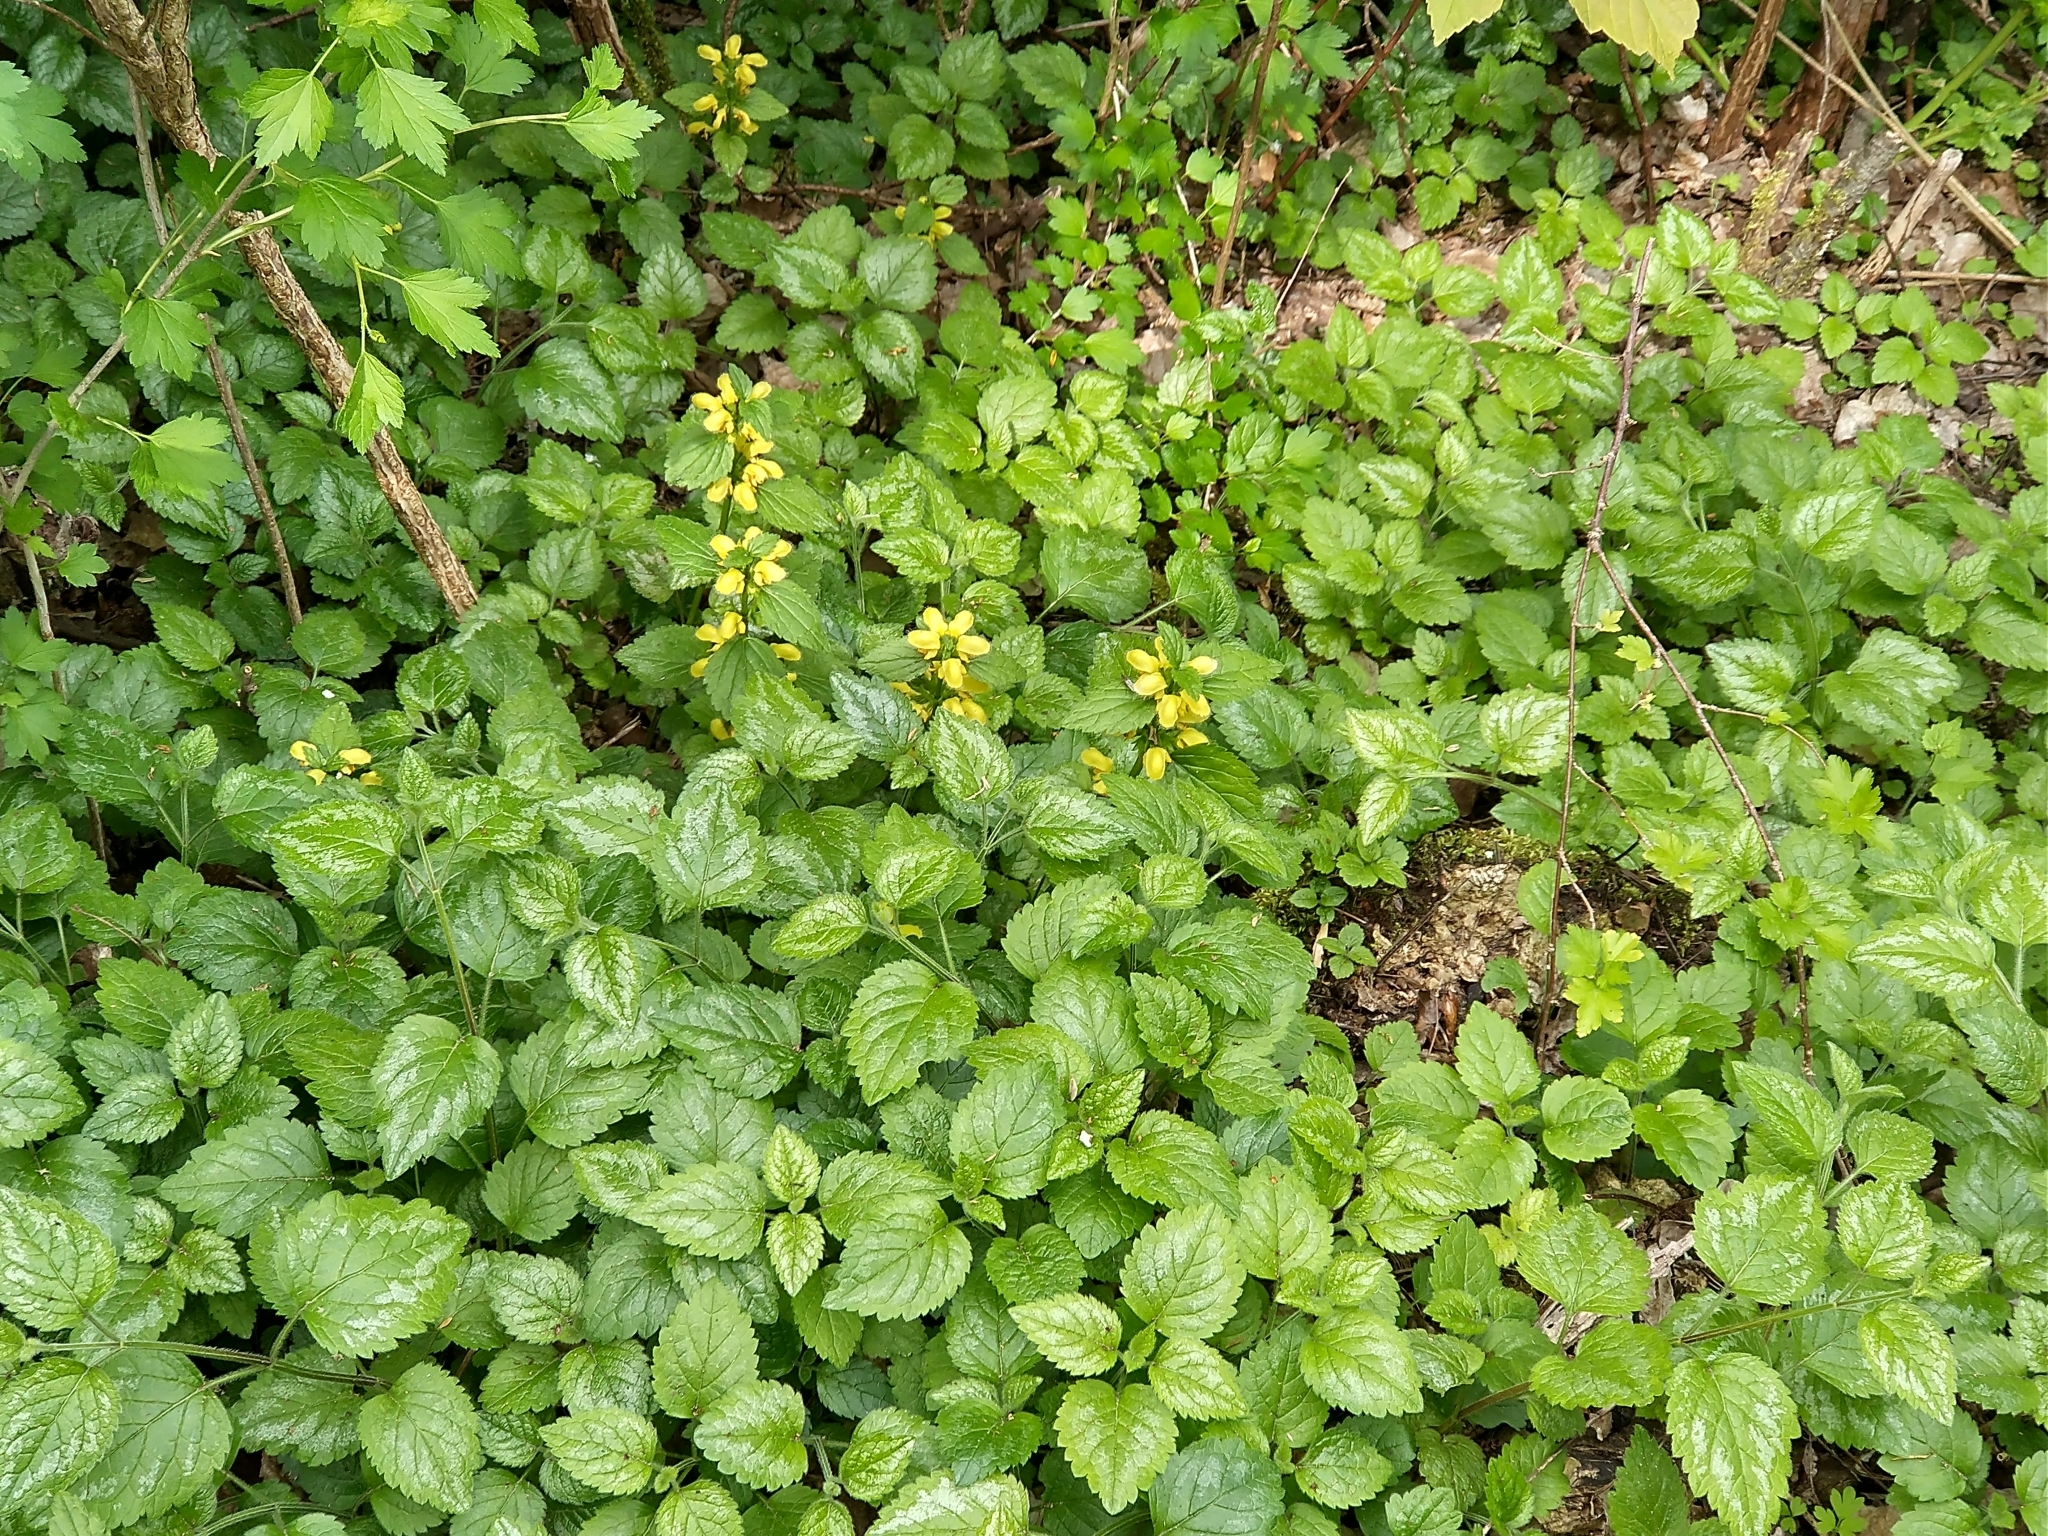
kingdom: Plantae
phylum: Tracheophyta
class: Magnoliopsida
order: Lamiales
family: Lamiaceae
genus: Lamium
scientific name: Lamium galeobdolon
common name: Yellow archangel
